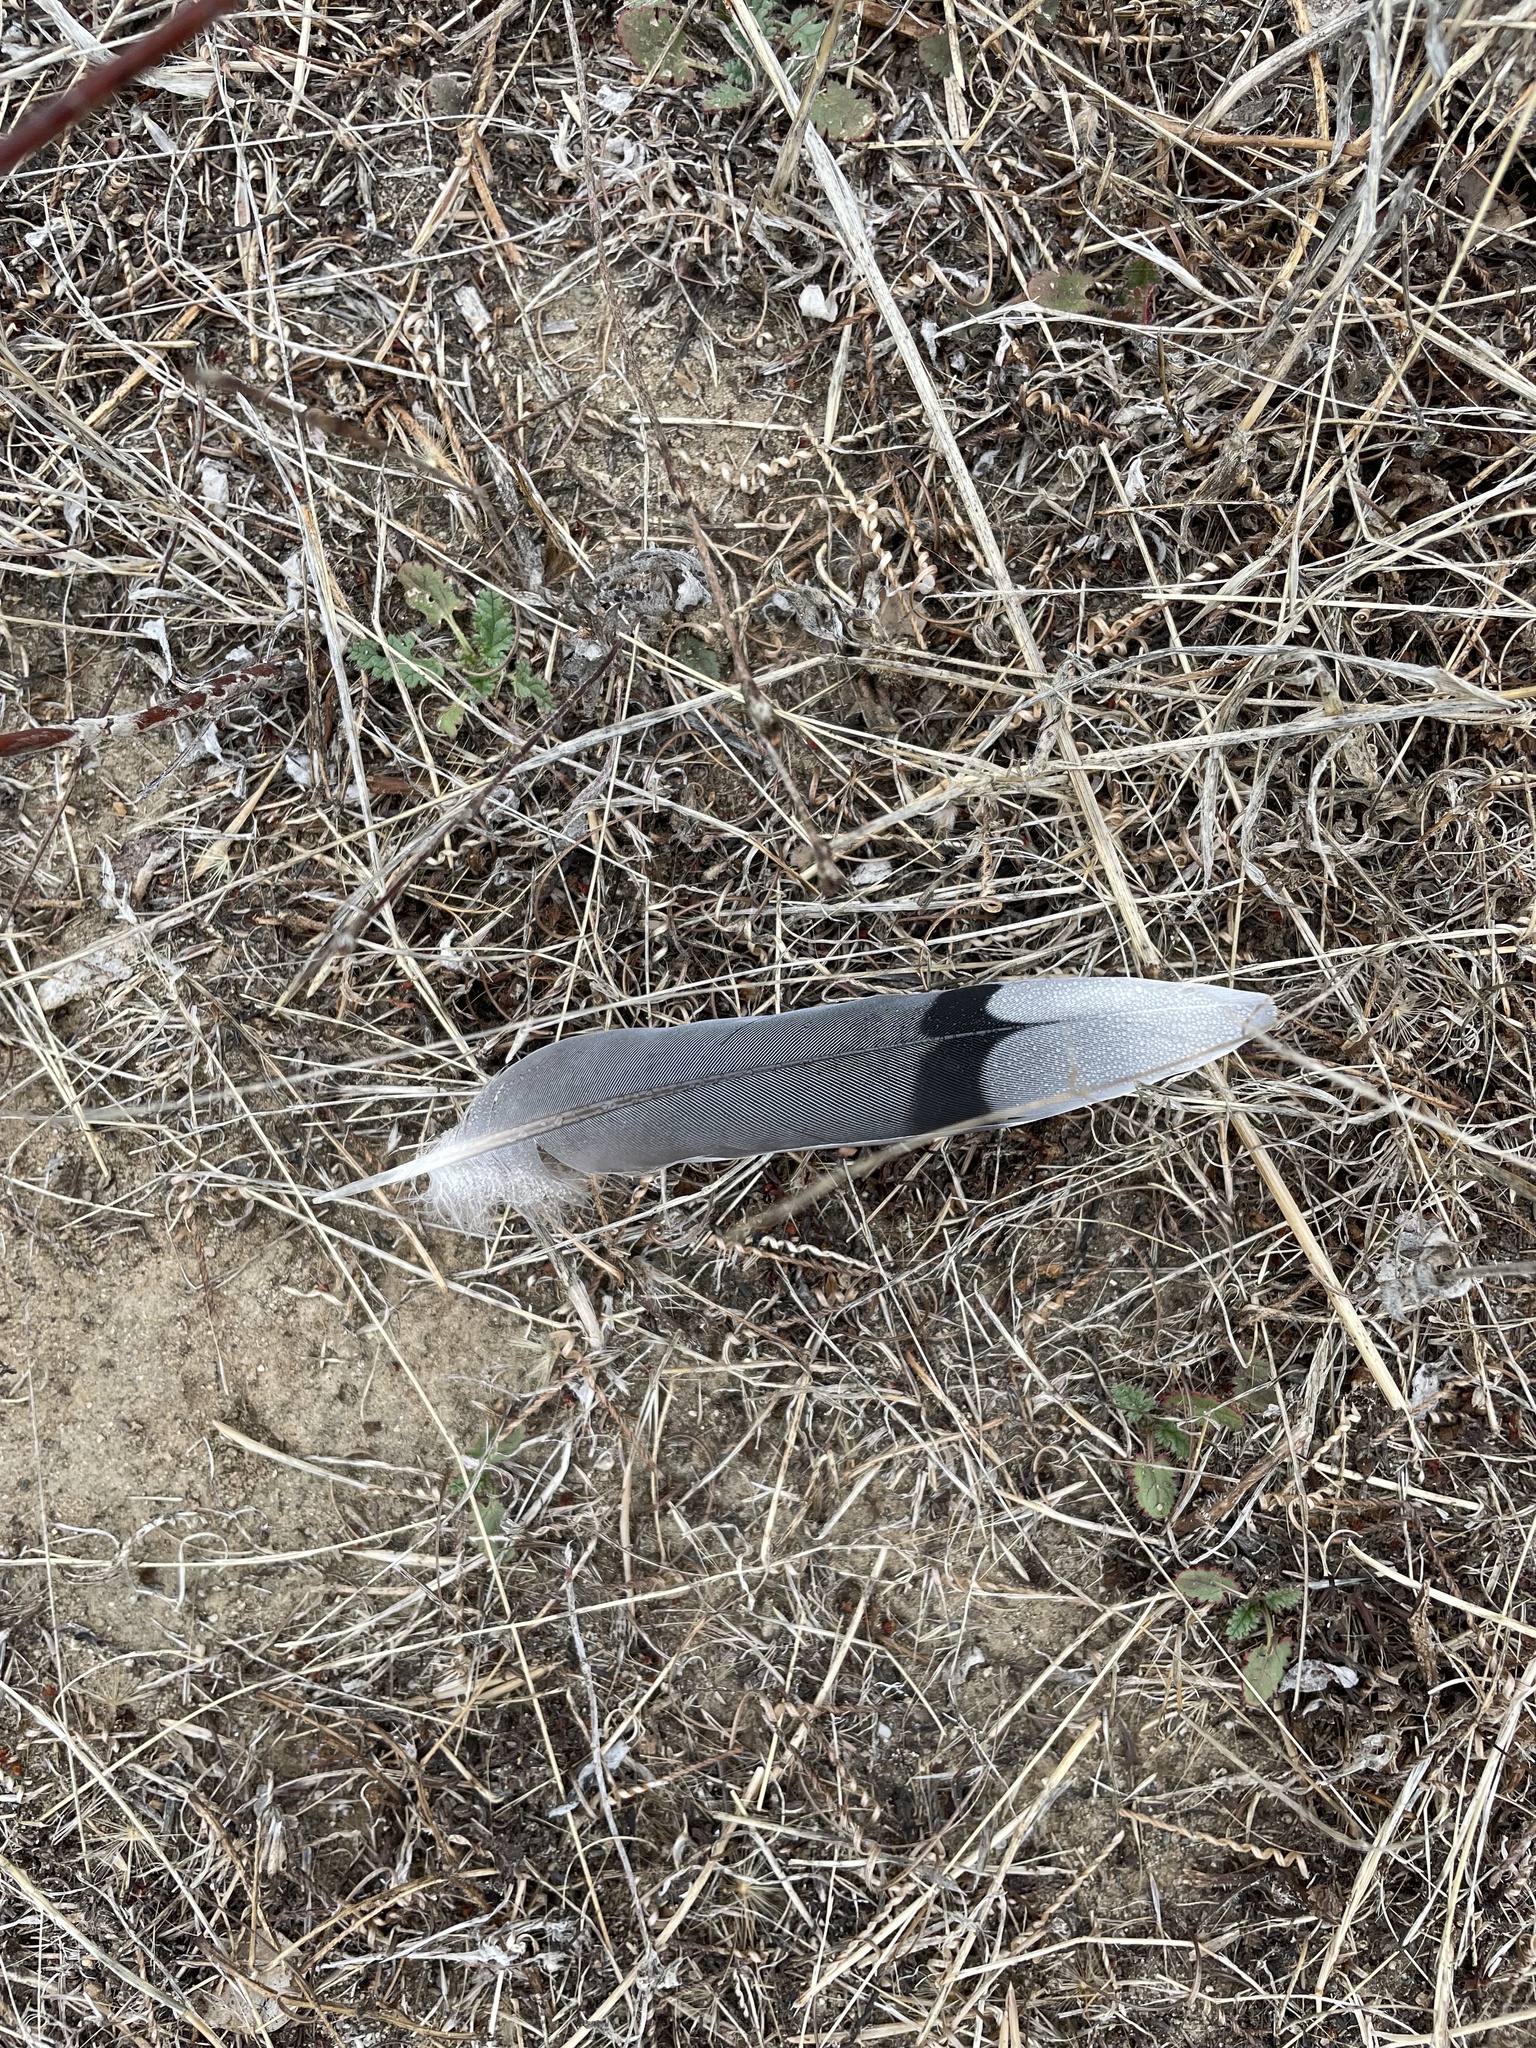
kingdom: Animalia
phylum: Chordata
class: Aves
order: Columbiformes
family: Columbidae
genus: Zenaida
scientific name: Zenaida macroura
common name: Mourning dove
